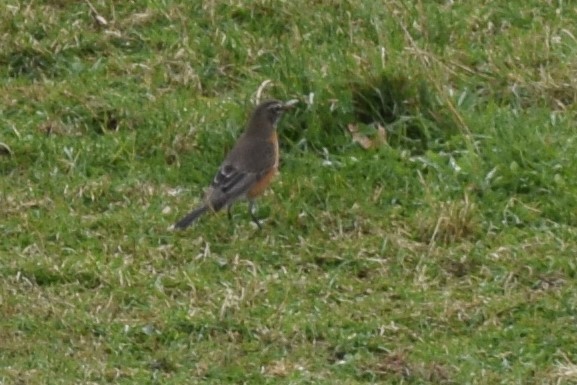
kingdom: Animalia
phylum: Chordata
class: Aves
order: Passeriformes
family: Turdidae
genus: Turdus
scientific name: Turdus migratorius
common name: American robin
